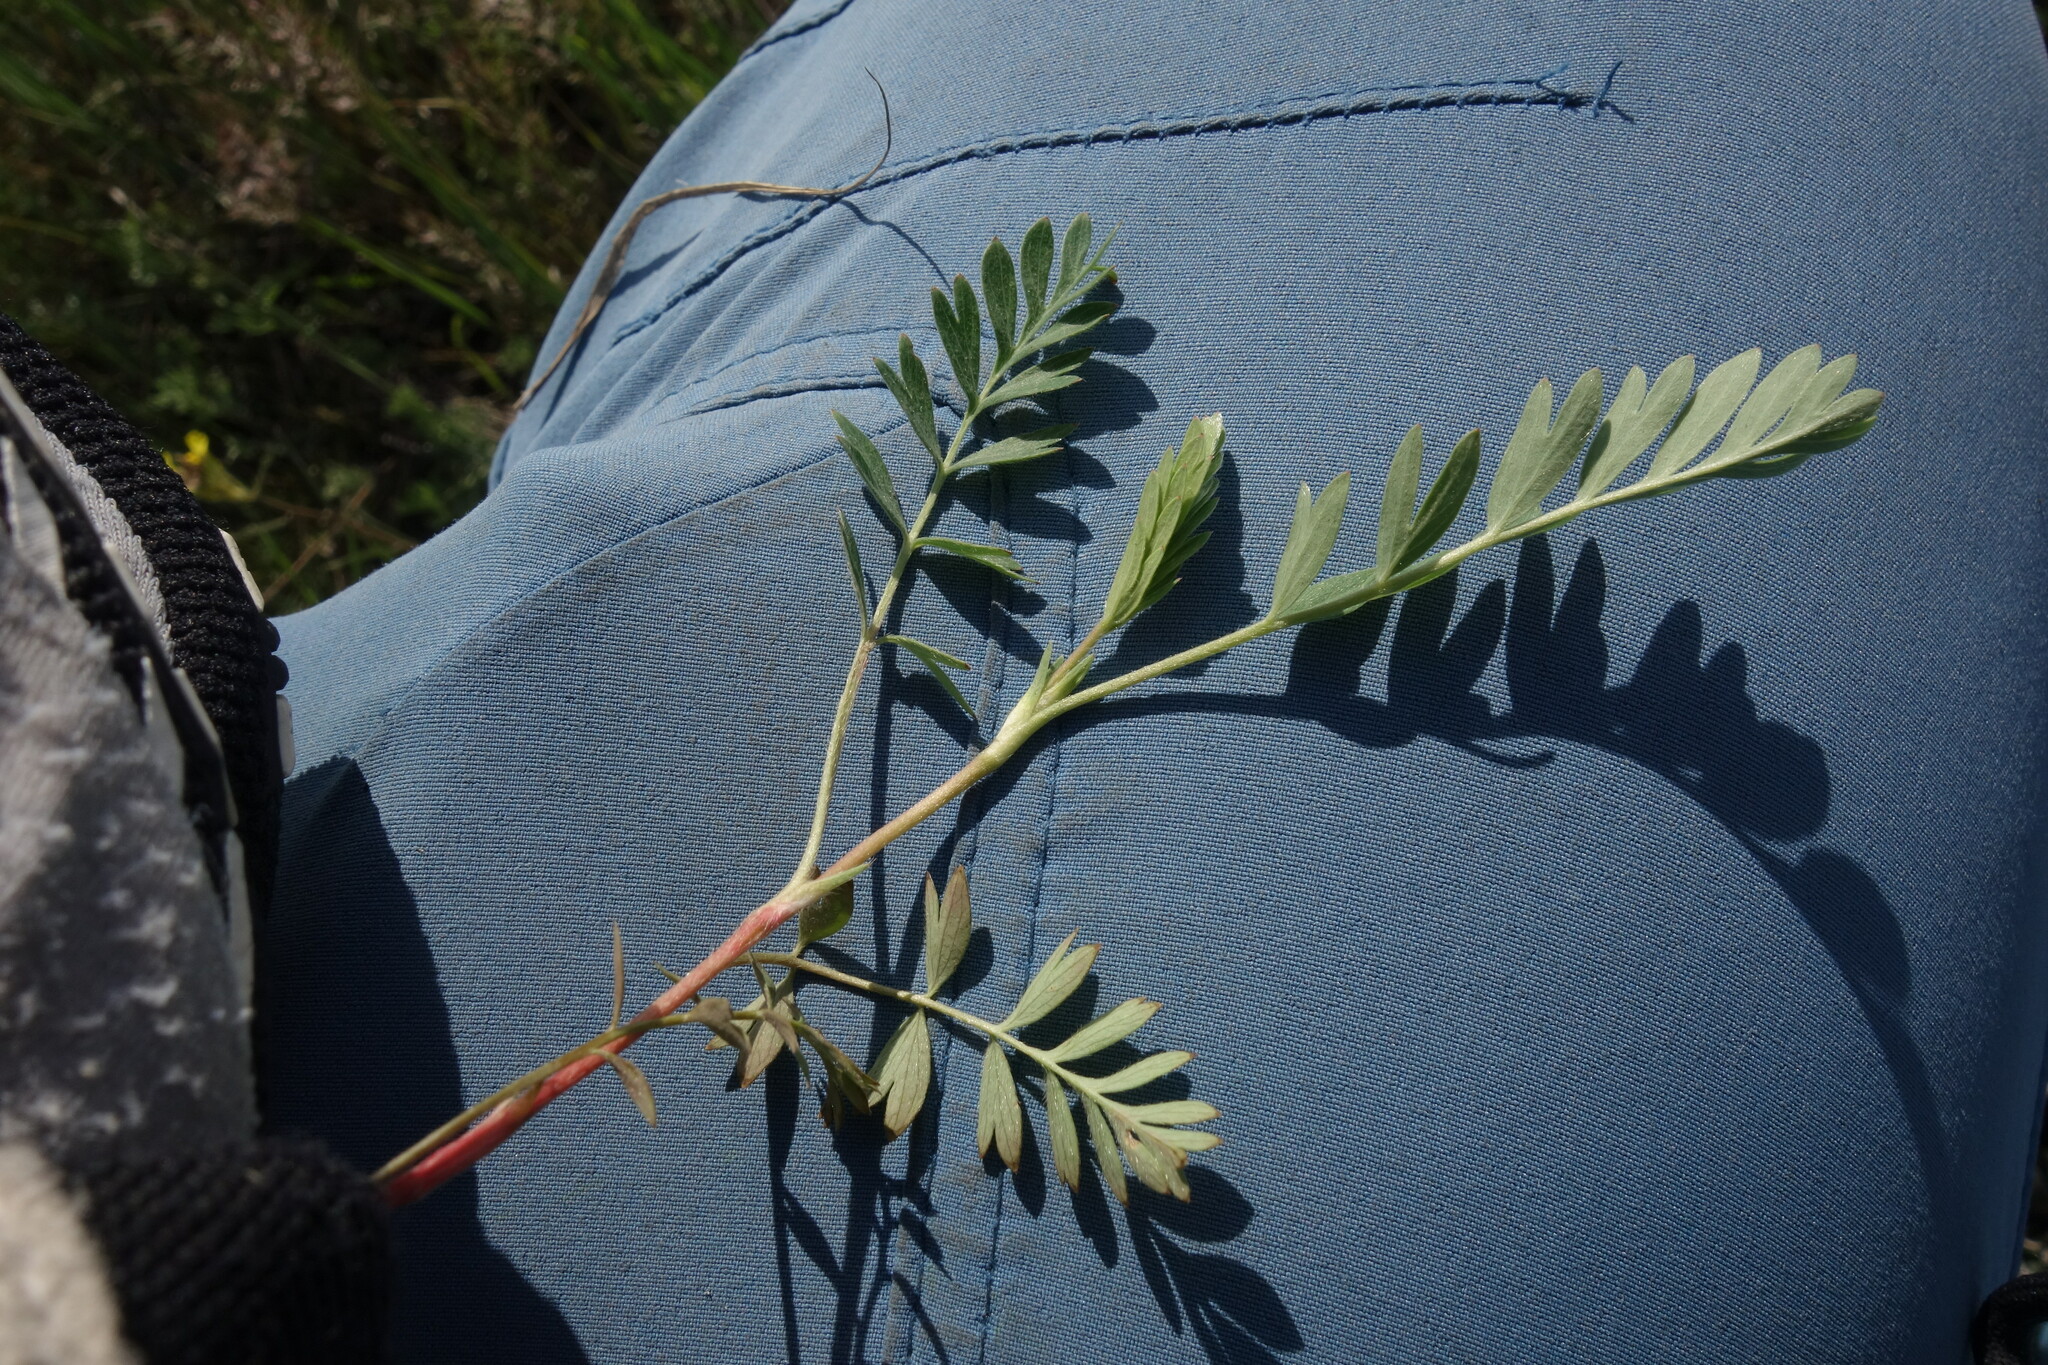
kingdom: Plantae
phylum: Tracheophyta
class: Magnoliopsida
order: Rosales
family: Rosaceae
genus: Sibbaldianthe
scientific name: Sibbaldianthe bifurca
